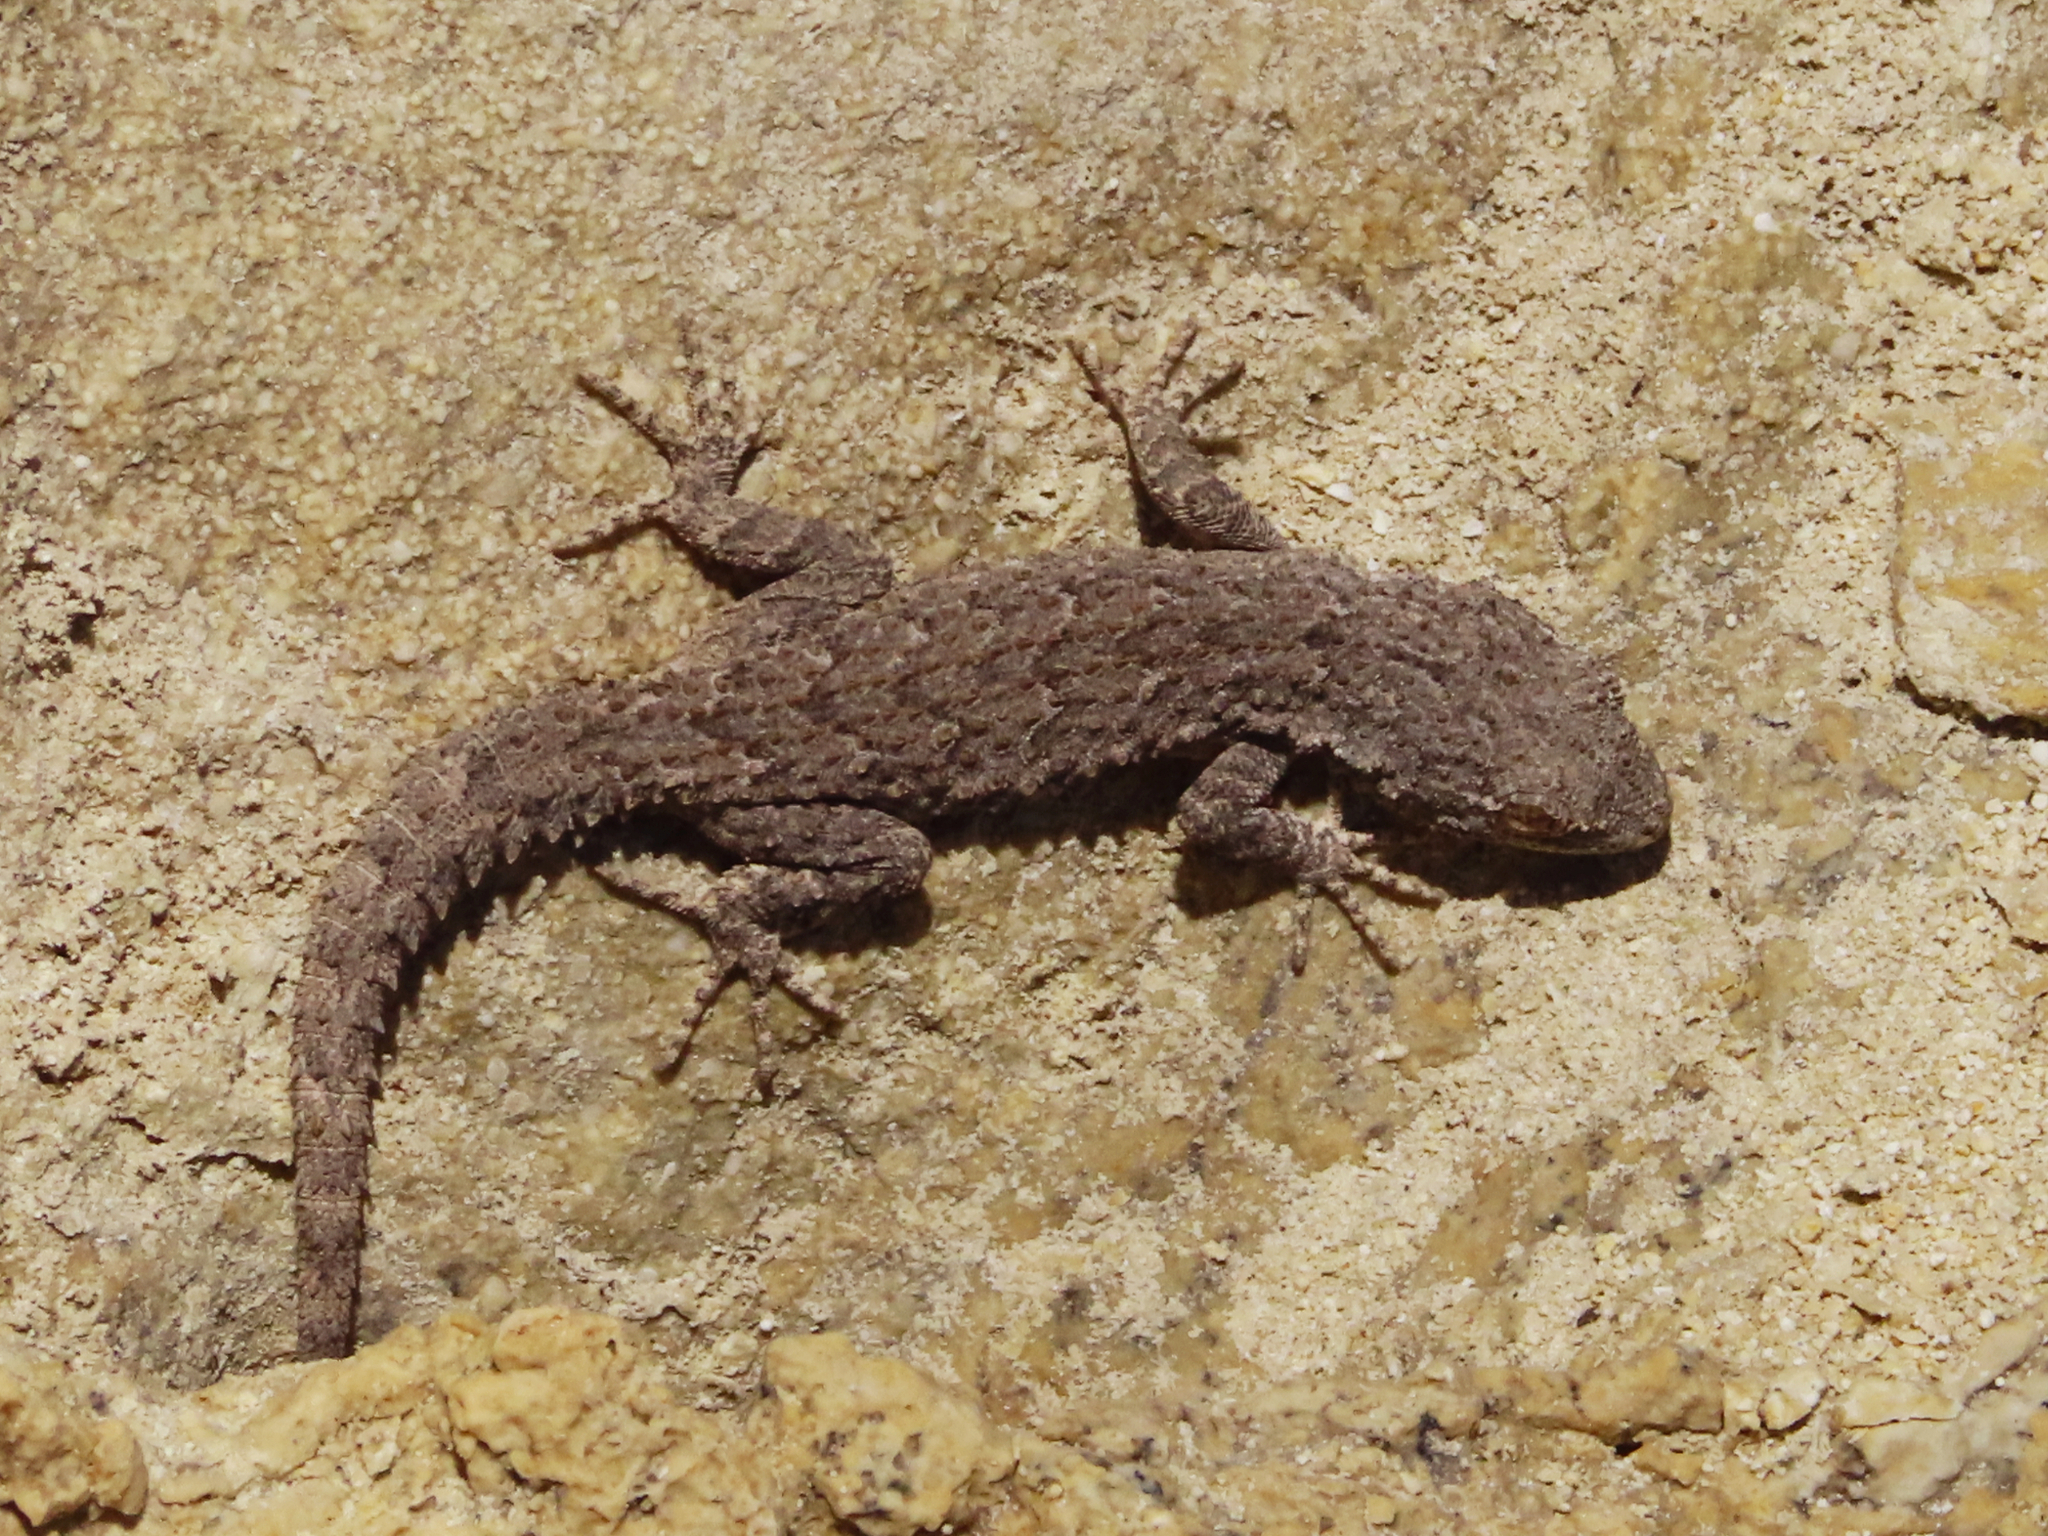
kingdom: Animalia
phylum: Chordata
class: Squamata
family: Gekkonidae
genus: Mediodactylus
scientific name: Mediodactylus russowii
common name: Grey thin-toed gecko
